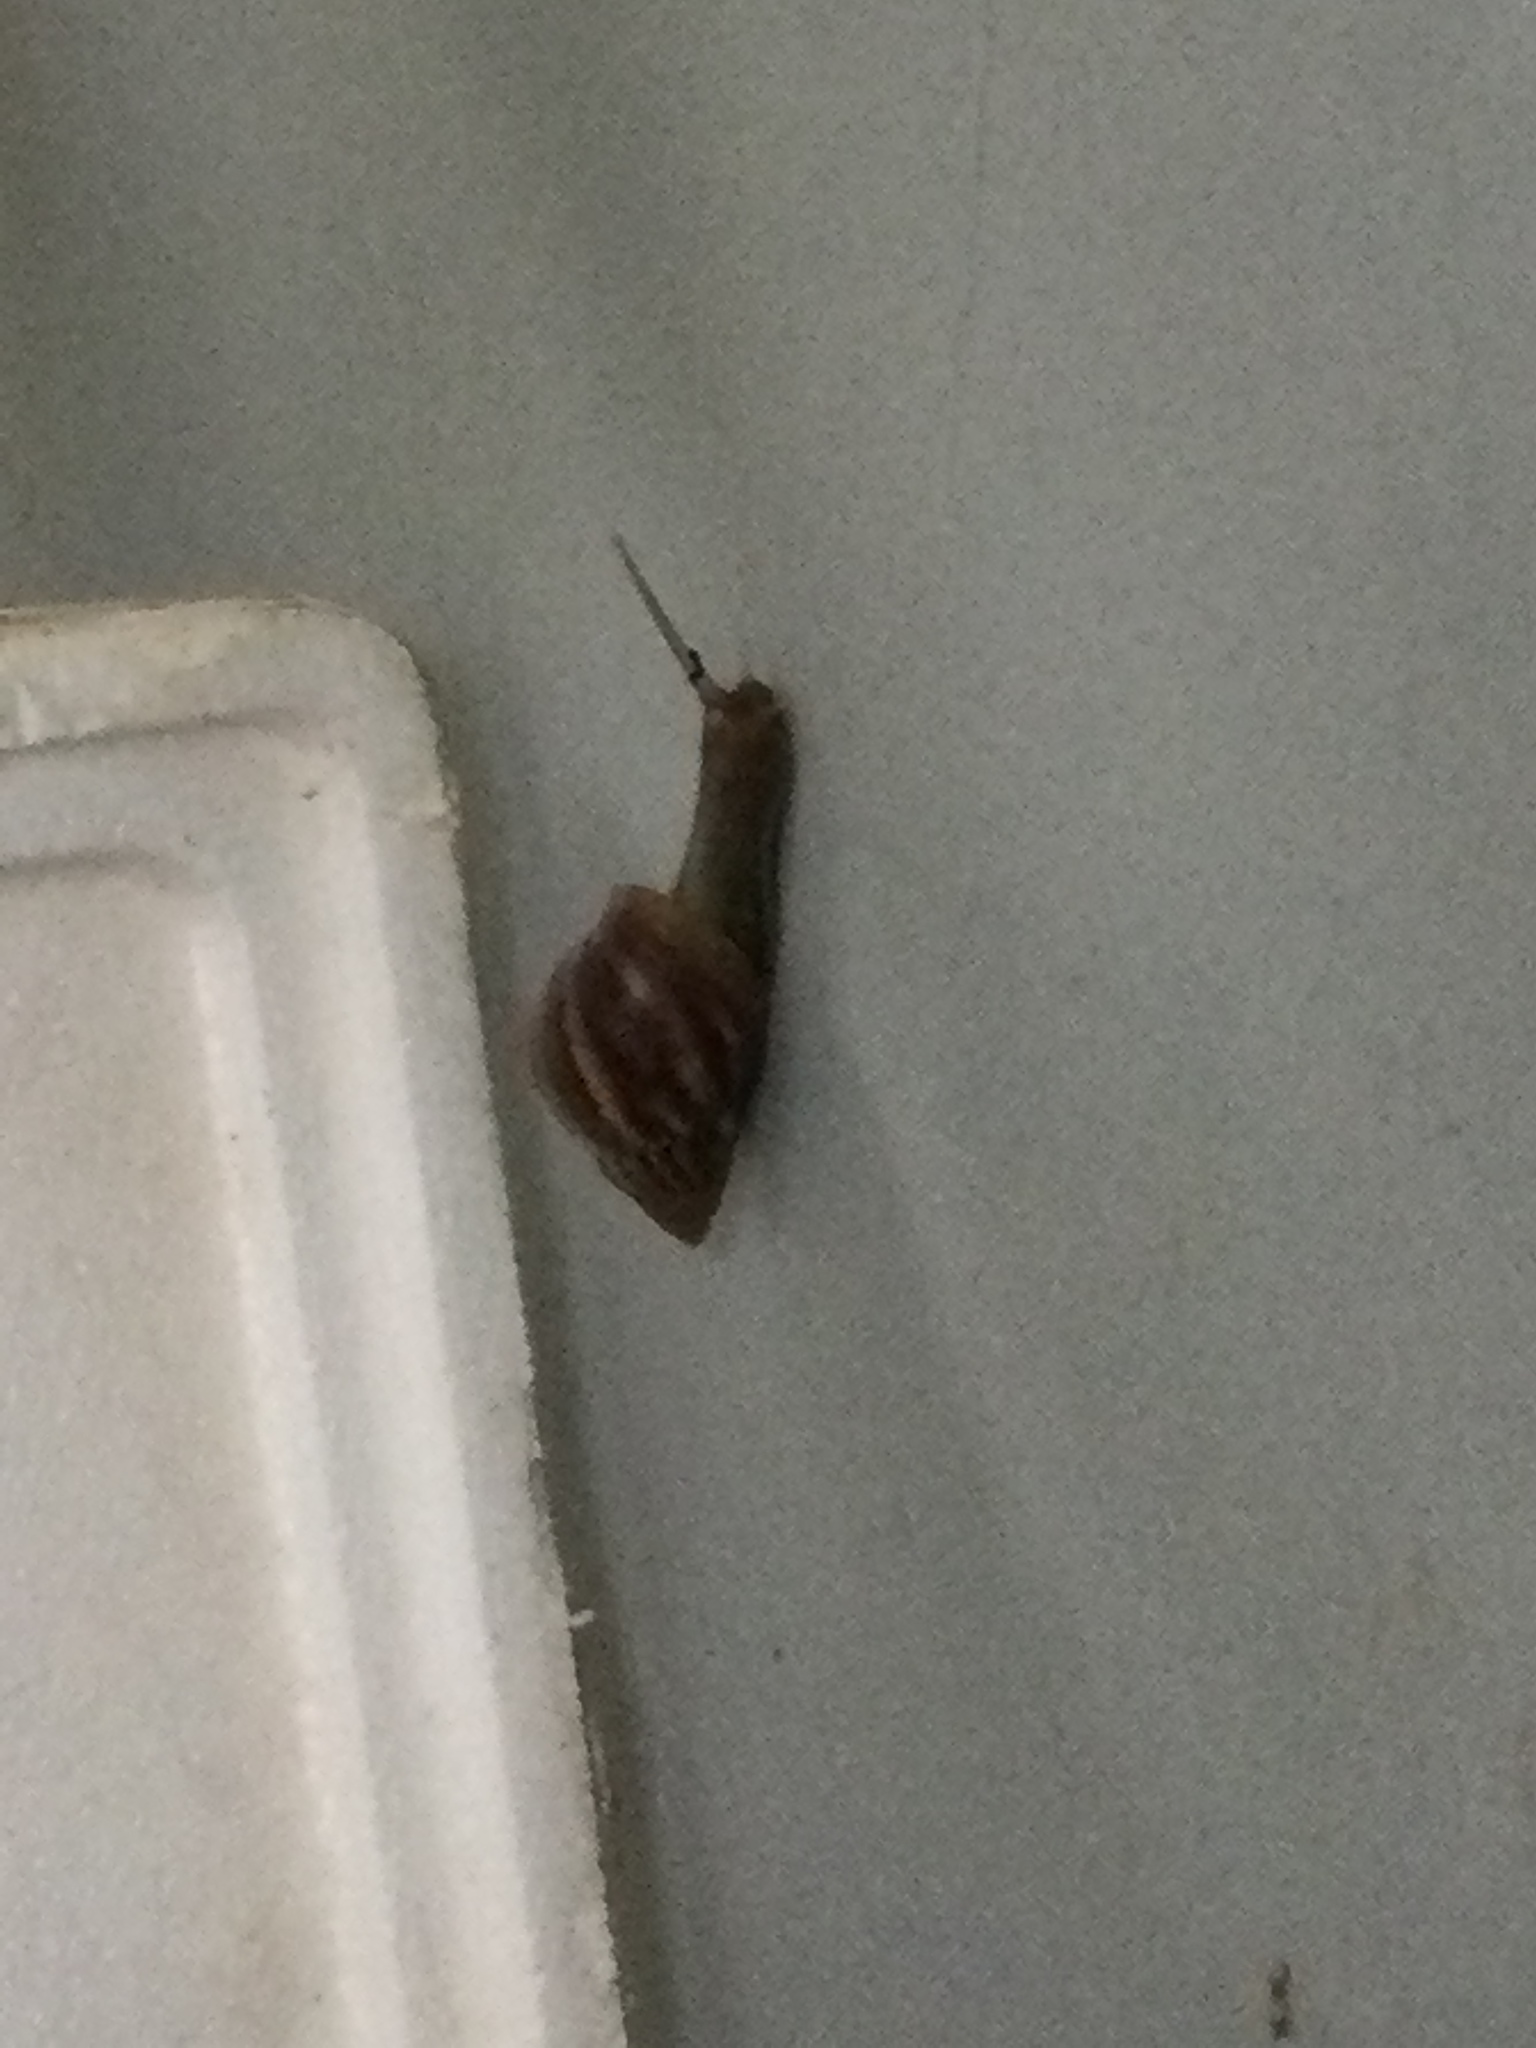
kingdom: Animalia
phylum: Mollusca
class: Gastropoda
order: Stylommatophora
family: Achatinidae
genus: Lissachatina
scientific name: Lissachatina fulica
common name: Giant african snail
